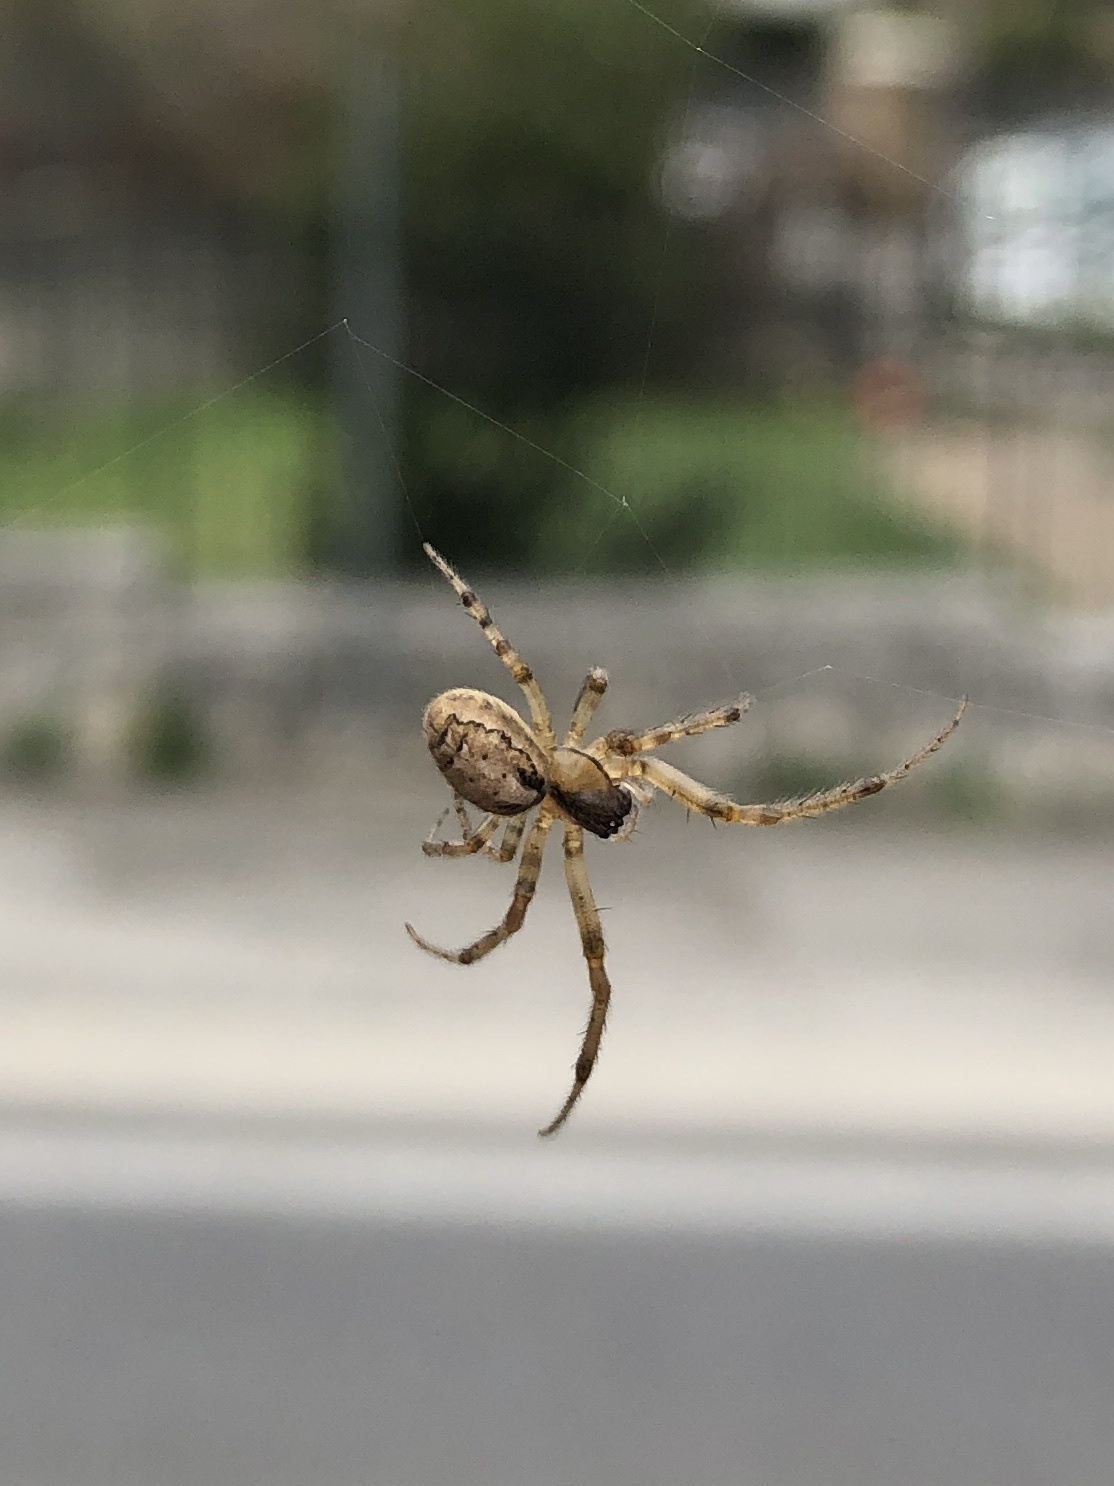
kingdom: Animalia
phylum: Arthropoda
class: Arachnida
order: Araneae
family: Araneidae
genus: Zygiella
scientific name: Zygiella x-notata
